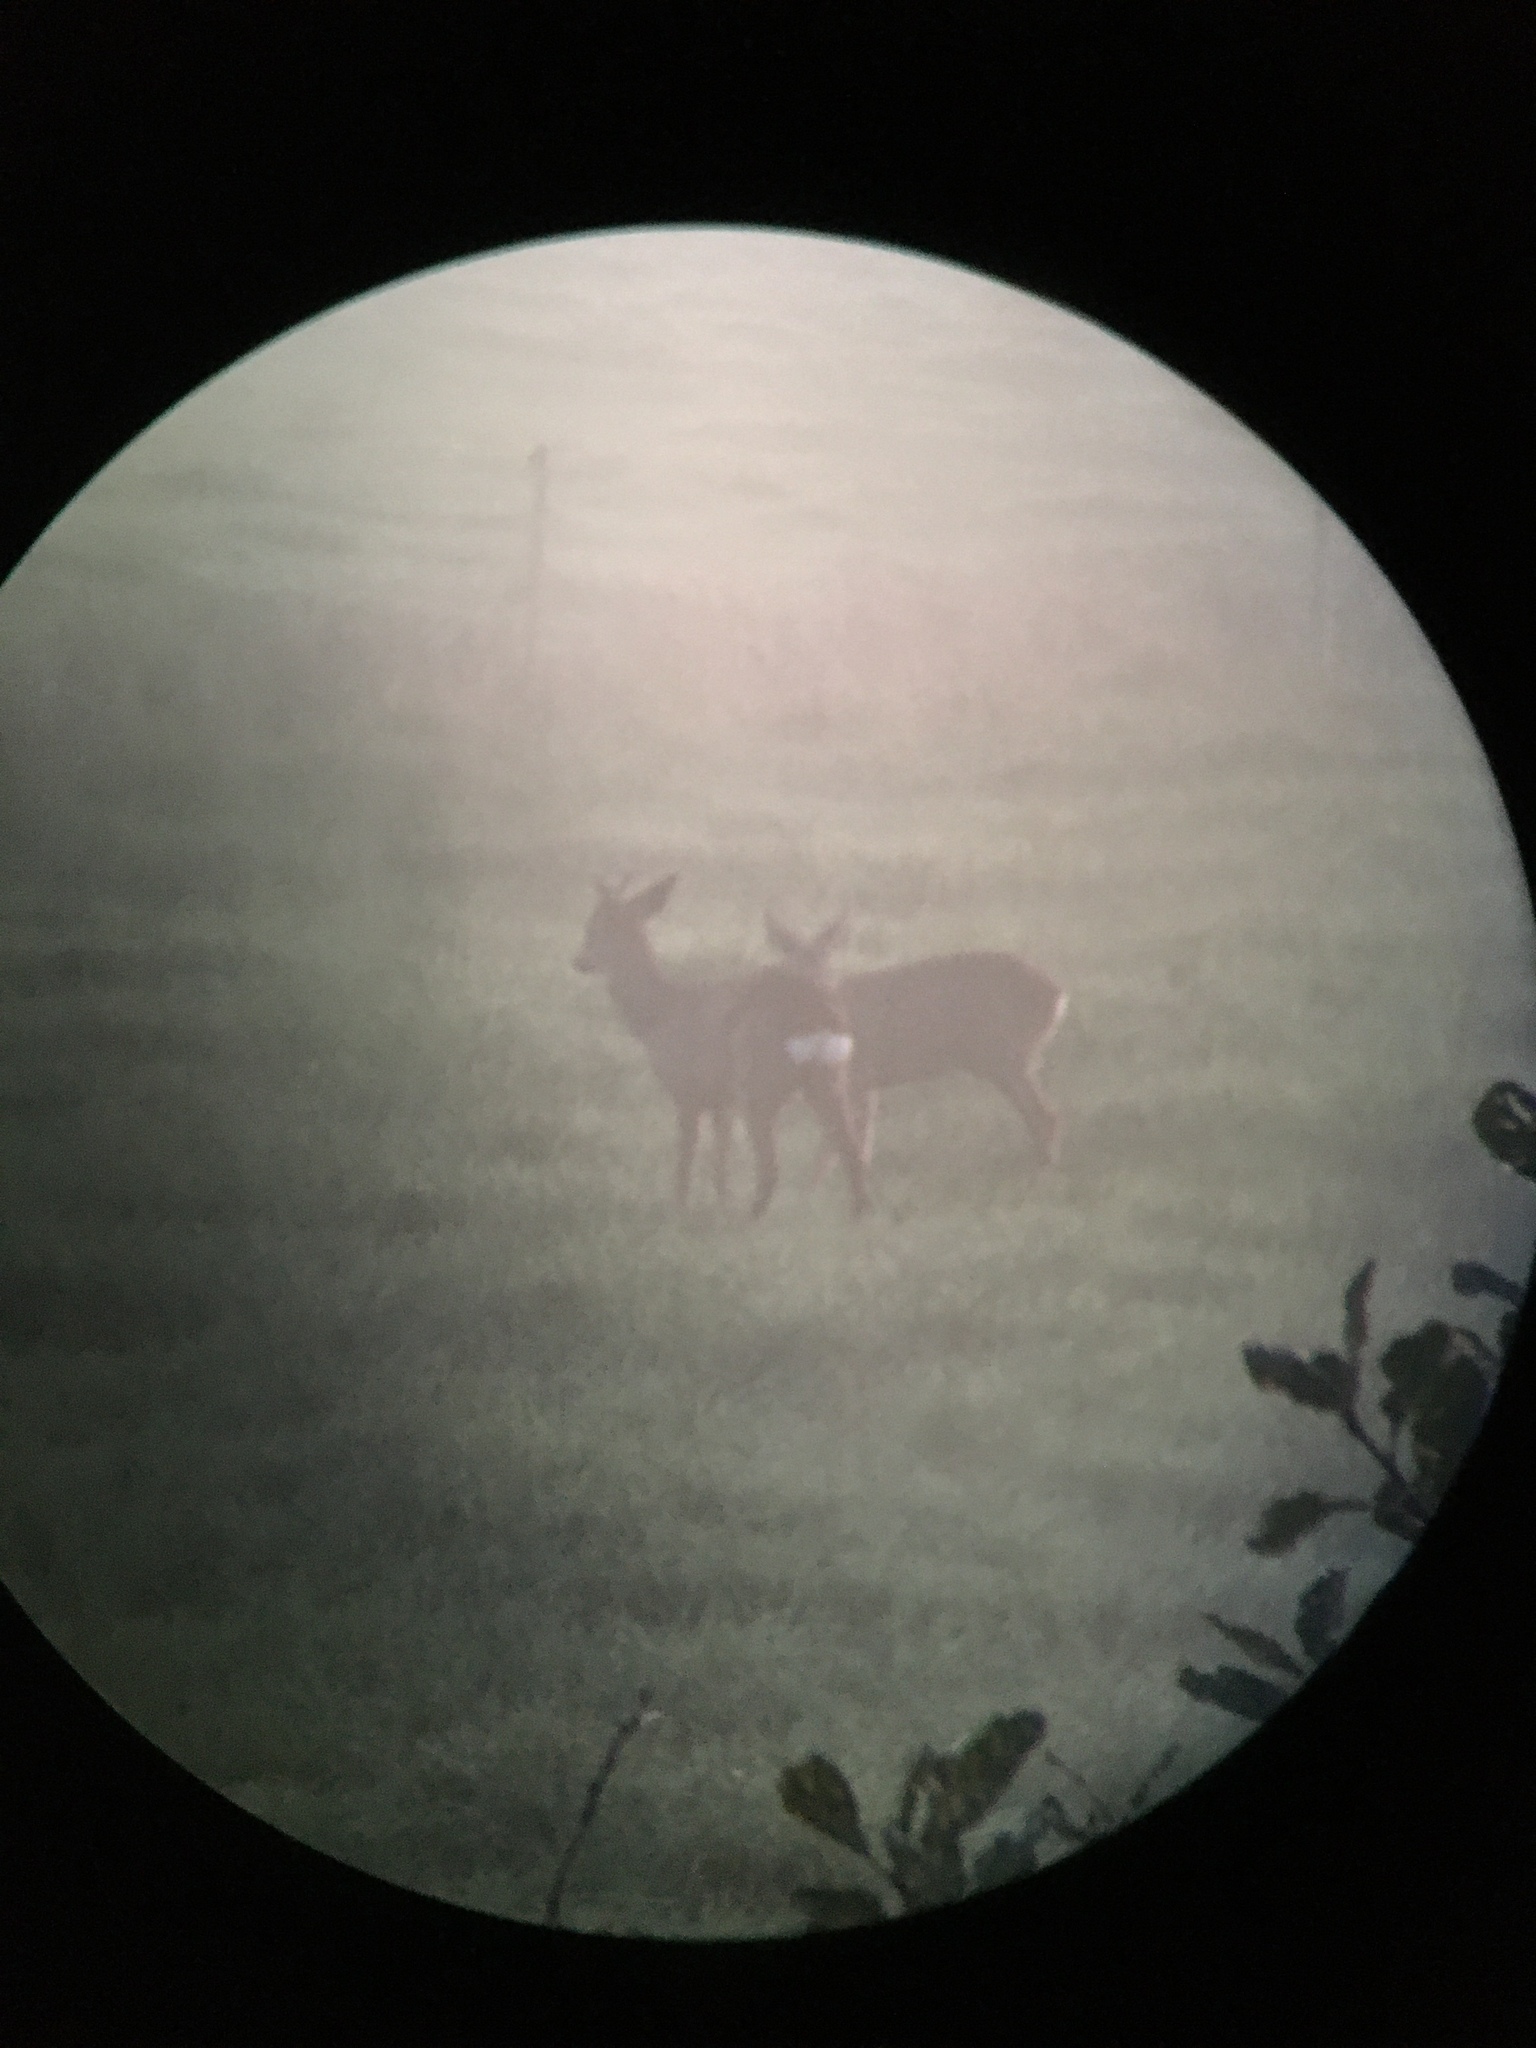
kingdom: Animalia
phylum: Chordata
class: Mammalia
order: Artiodactyla
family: Cervidae
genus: Capreolus
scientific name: Capreolus capreolus
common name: Western roe deer
